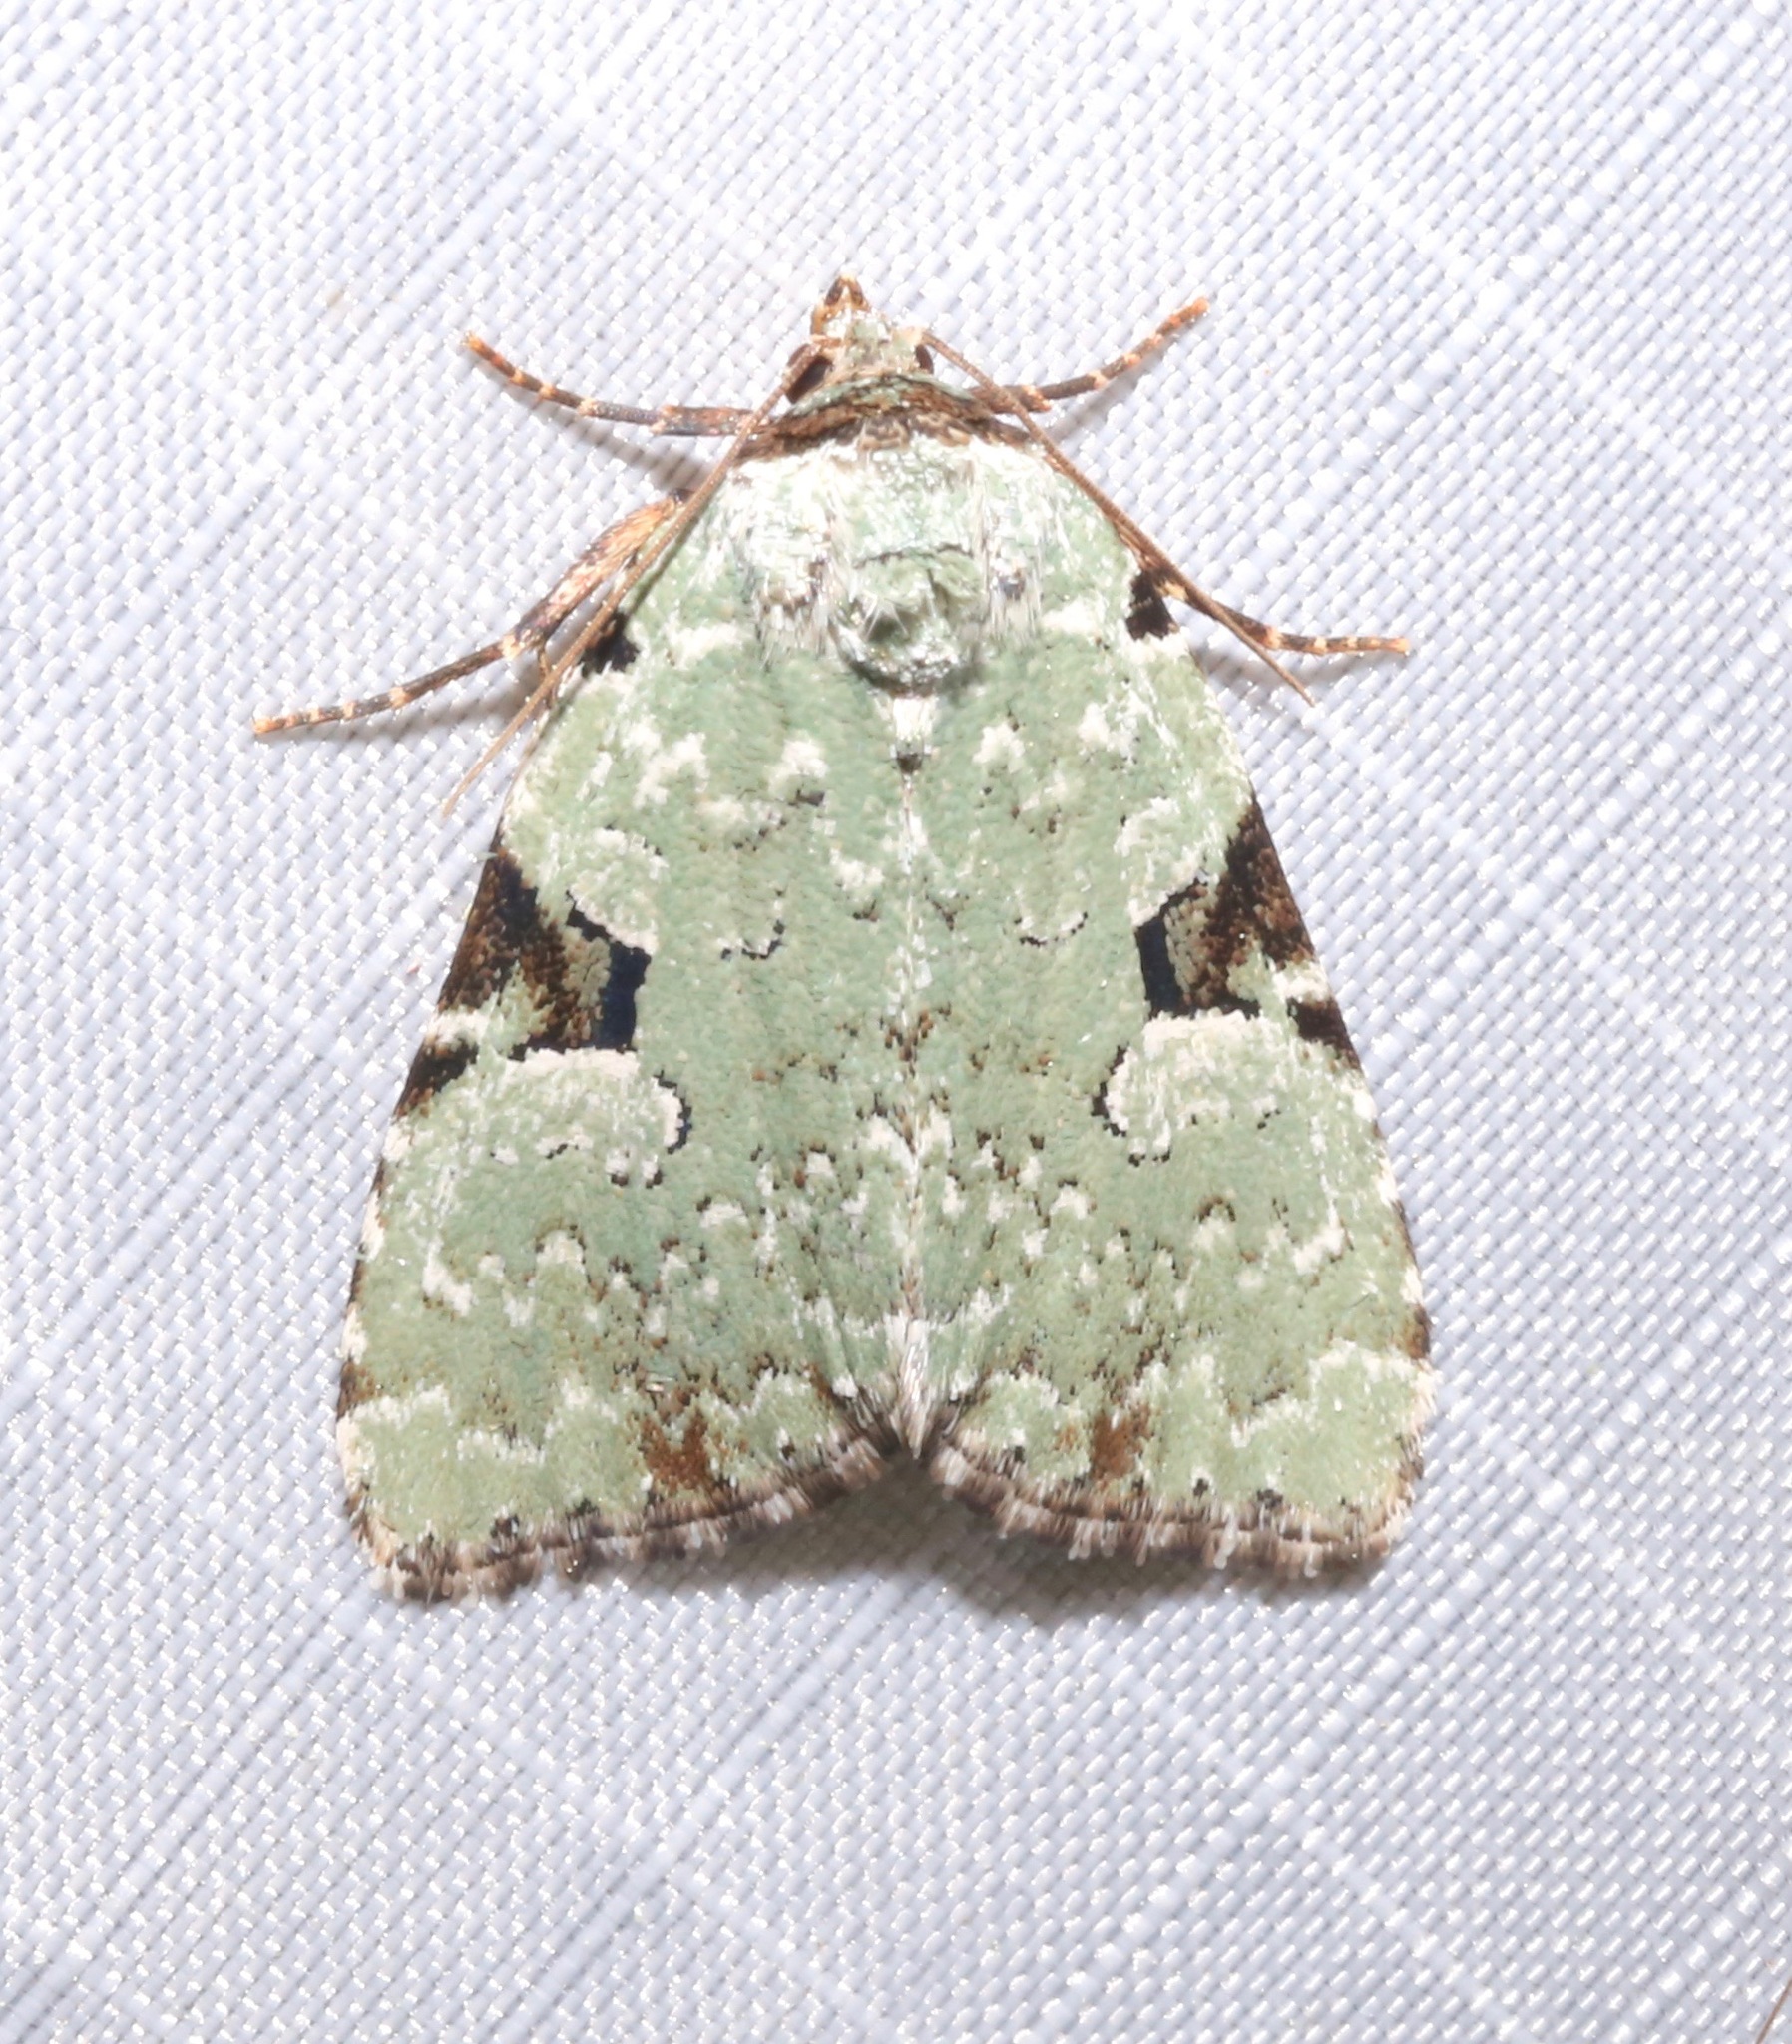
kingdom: Animalia
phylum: Arthropoda
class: Insecta
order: Lepidoptera
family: Noctuidae
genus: Leuconycta
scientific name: Leuconycta diphteroides
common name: Green leuconycta moth
